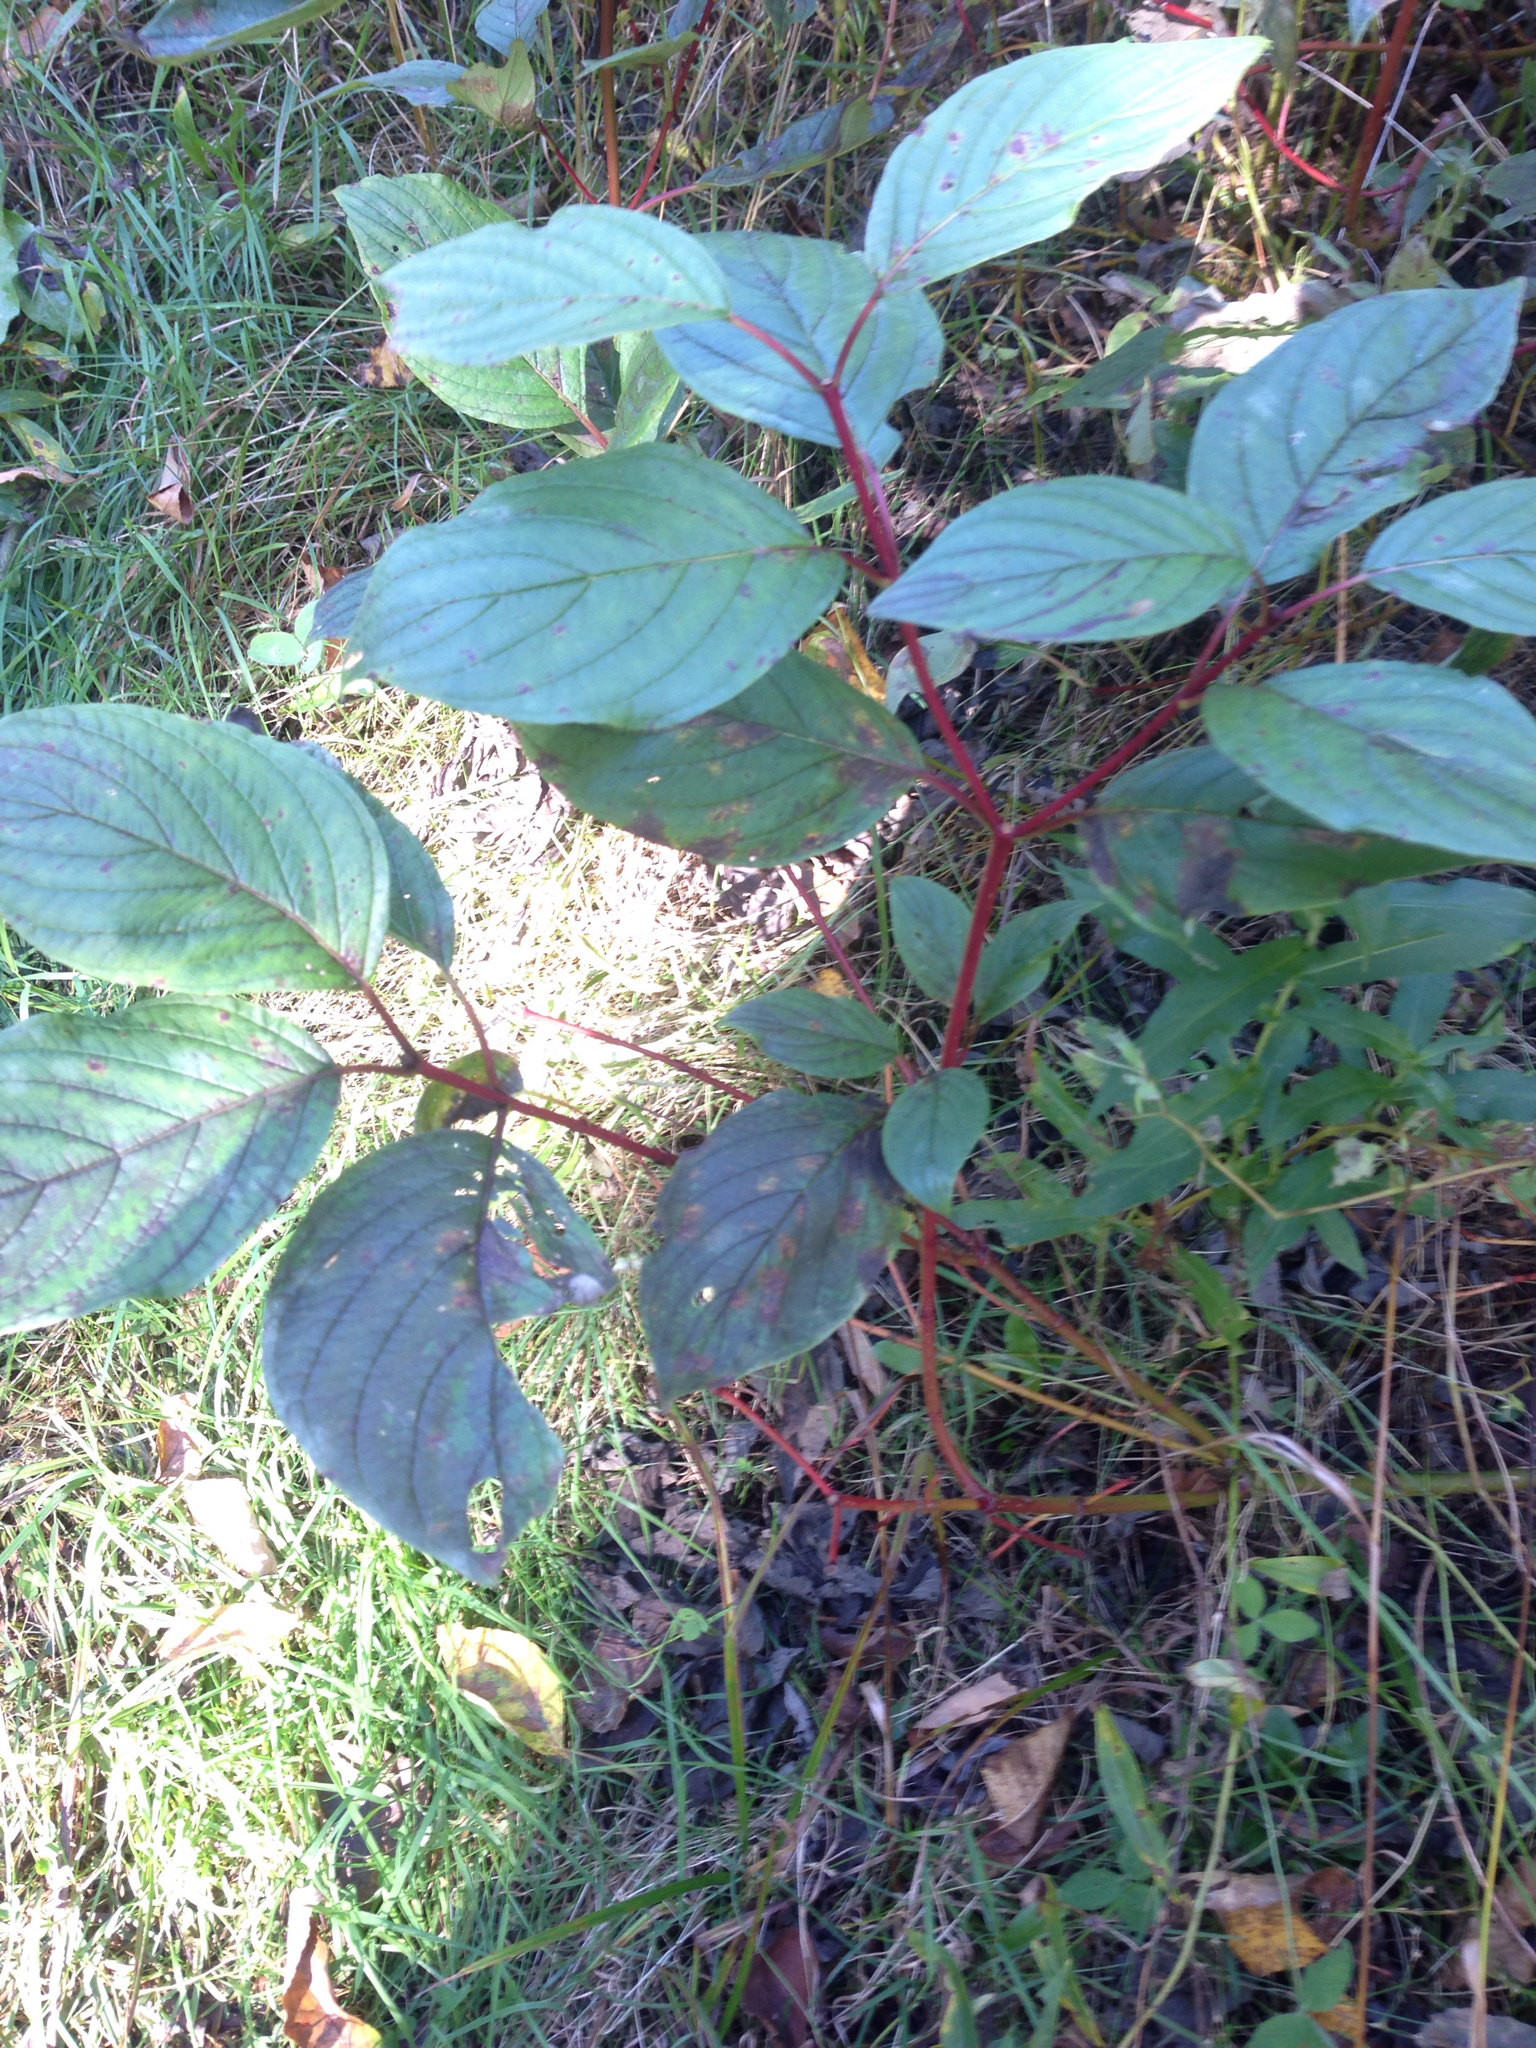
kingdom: Plantae
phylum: Tracheophyta
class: Magnoliopsida
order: Cornales
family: Cornaceae
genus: Cornus
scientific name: Cornus sericea
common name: Red-osier dogwood
